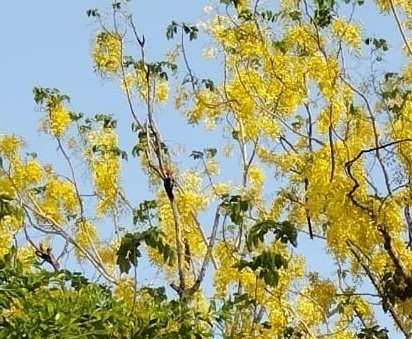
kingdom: Animalia
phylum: Chordata
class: Aves
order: Piciformes
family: Picidae
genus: Dryocopus
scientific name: Dryocopus lineatus
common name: Lineated woodpecker
